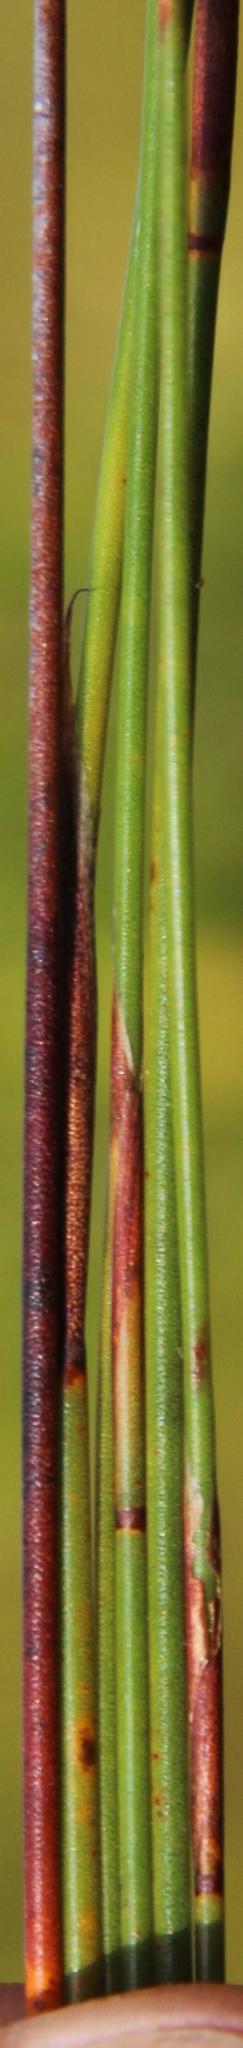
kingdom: Plantae
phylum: Tracheophyta
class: Liliopsida
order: Poales
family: Restionaceae
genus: Staberoha
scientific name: Staberoha cernua
